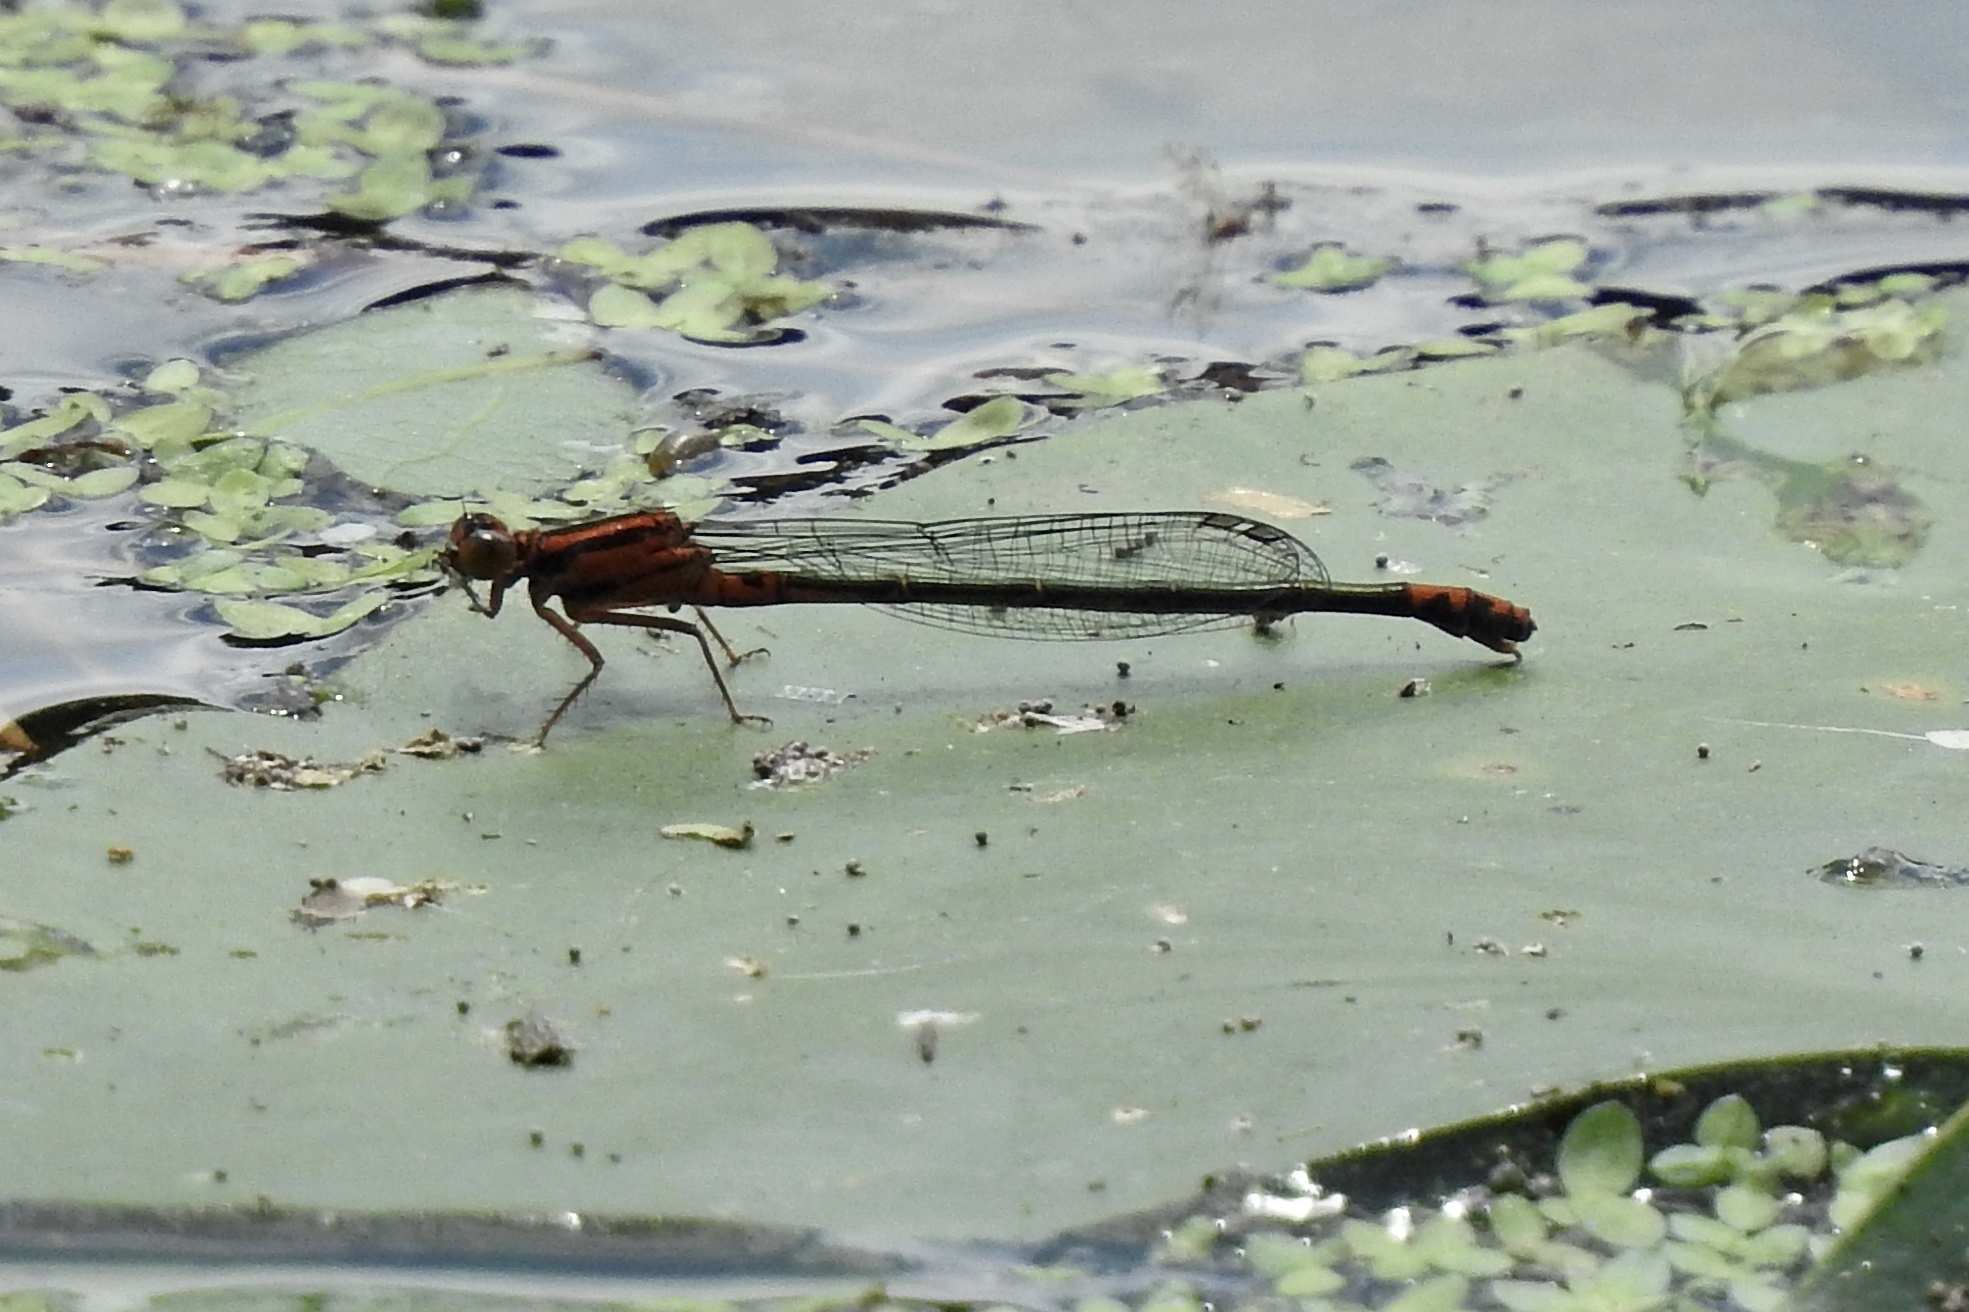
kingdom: Animalia
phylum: Arthropoda
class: Insecta
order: Odonata
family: Coenagrionidae
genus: Ischnura
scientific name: Ischnura kellicotti
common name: Lilypad forktail
